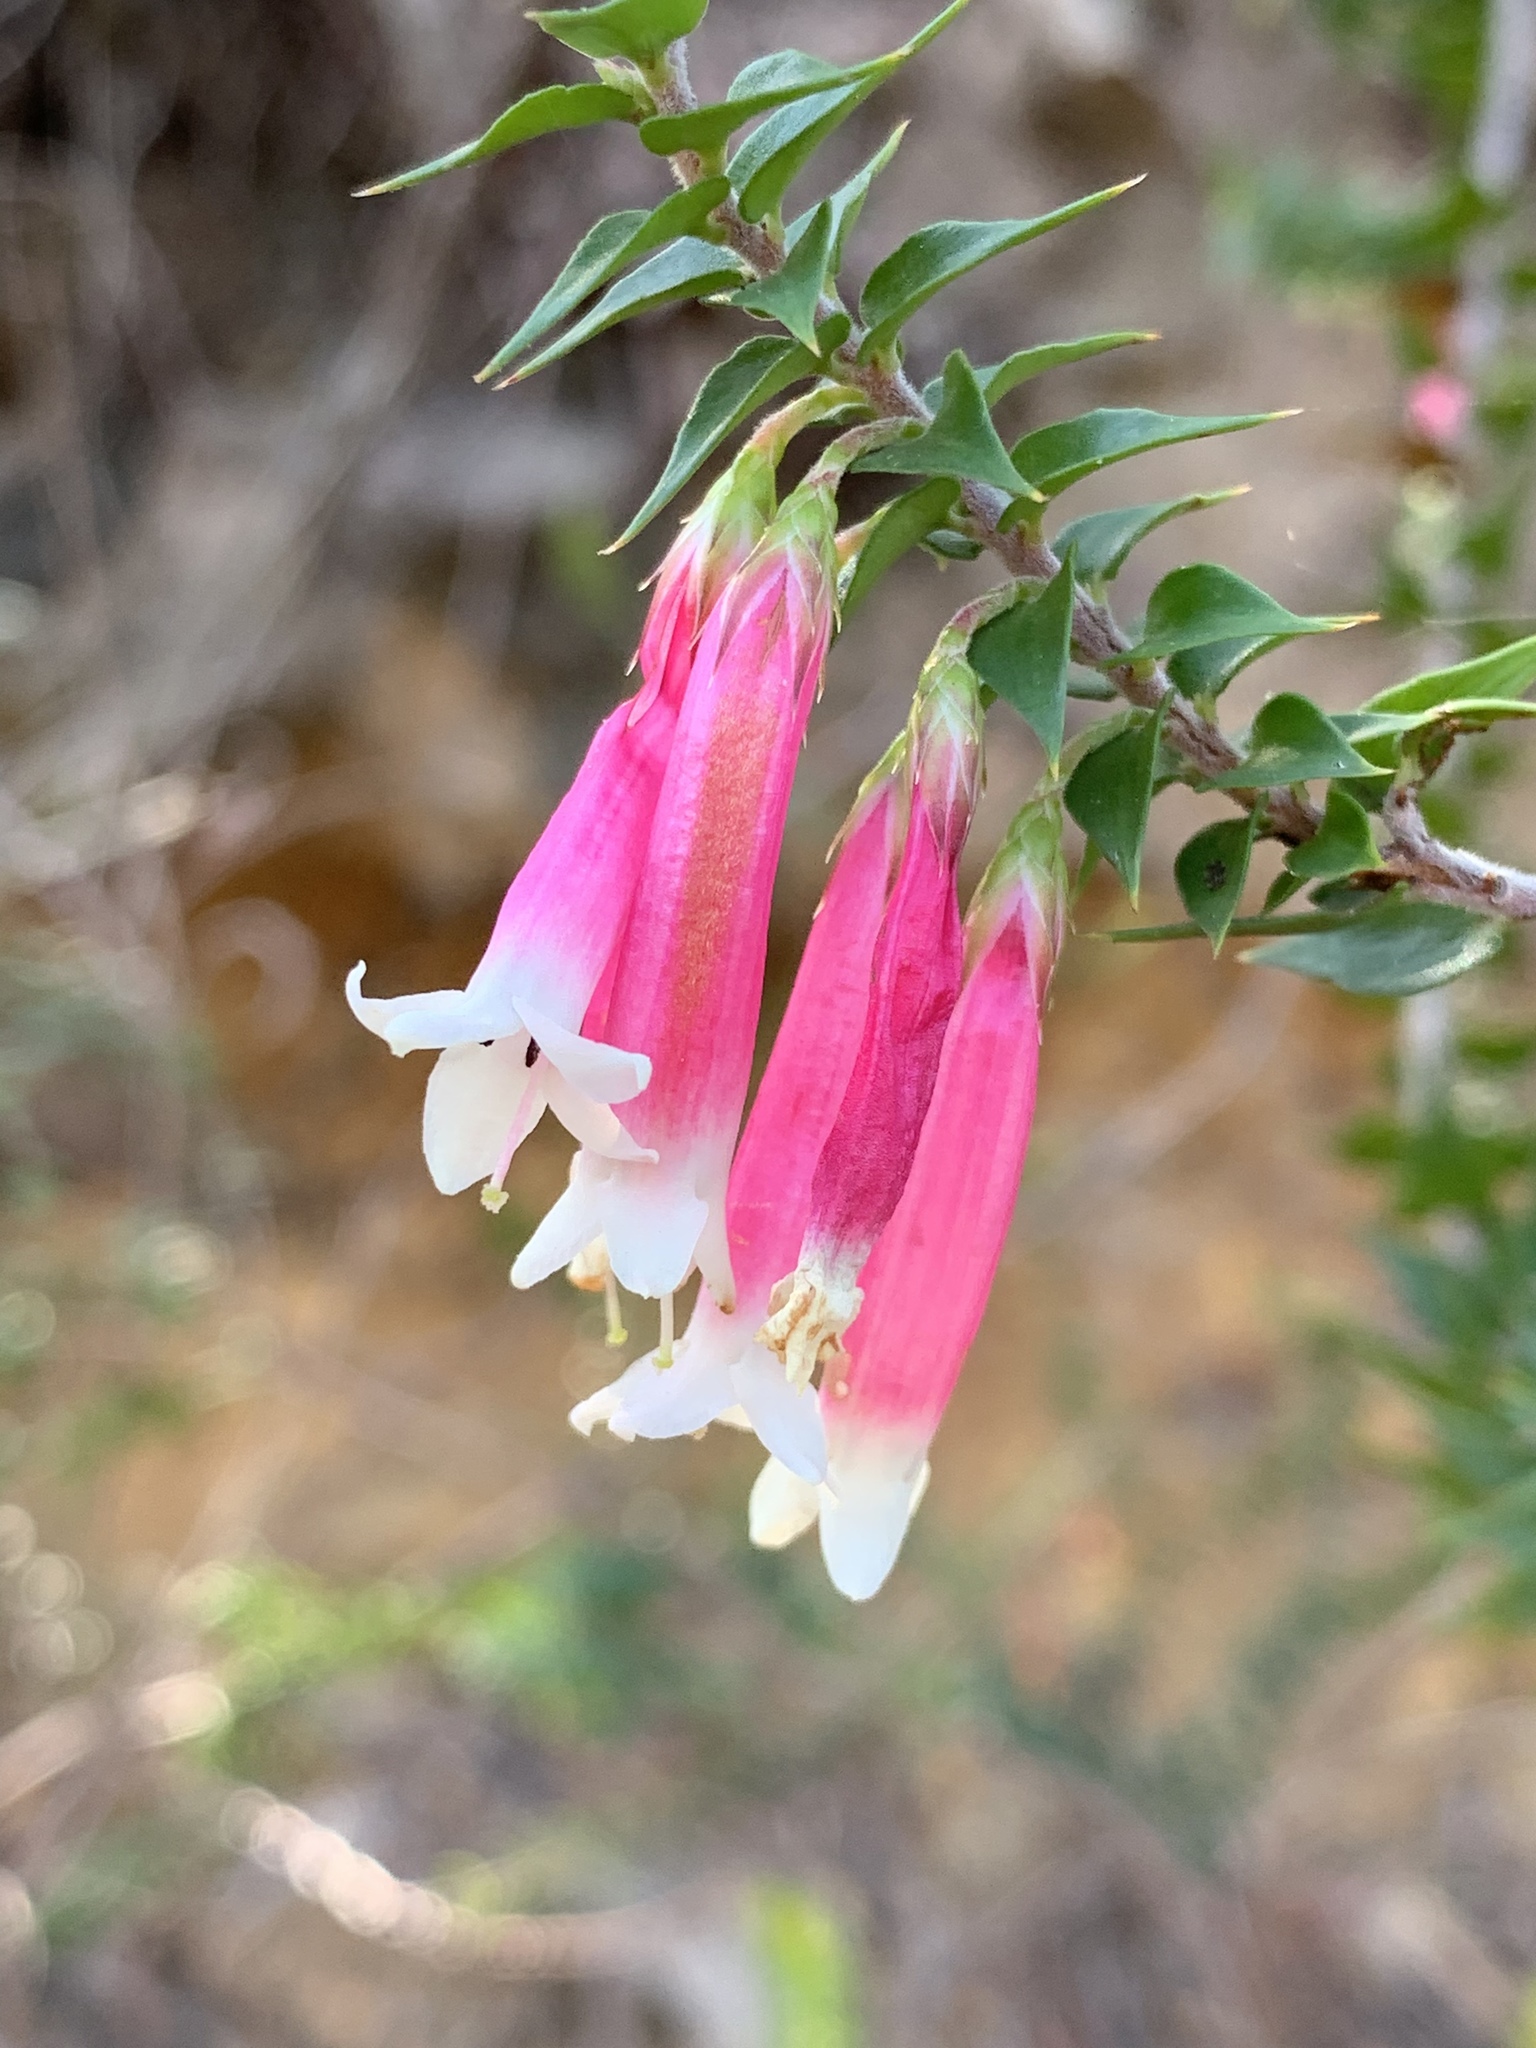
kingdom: Plantae
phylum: Tracheophyta
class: Magnoliopsida
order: Ericales
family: Ericaceae
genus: Epacris
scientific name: Epacris longiflora
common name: Fuchsia-heath
